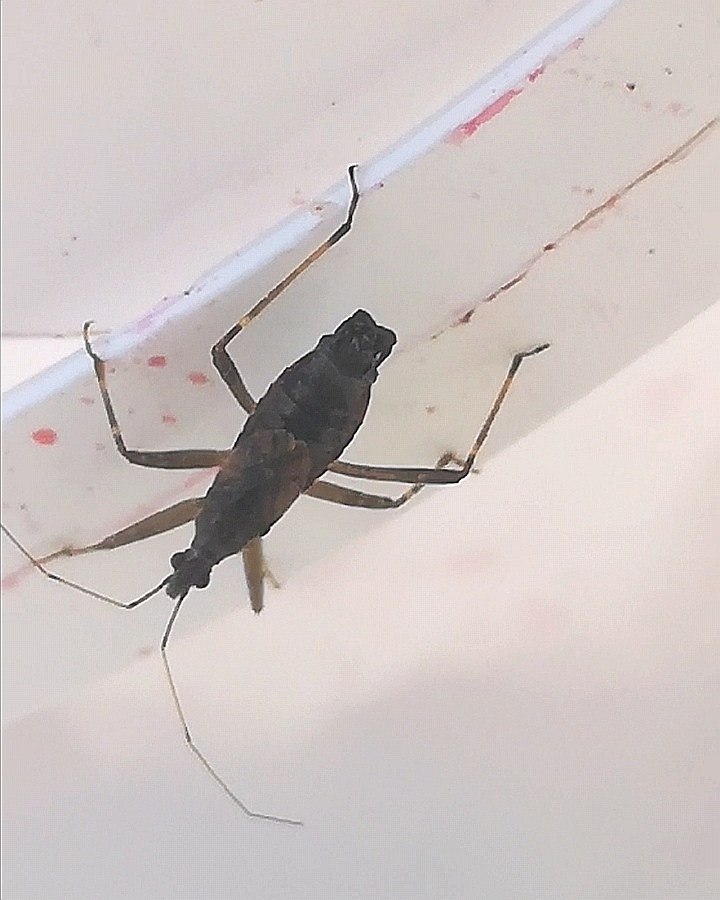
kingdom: Animalia
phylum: Arthropoda
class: Insecta
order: Hemiptera
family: Nabidae
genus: Himacerus
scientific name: Himacerus apterus
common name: Tree damsel bug
